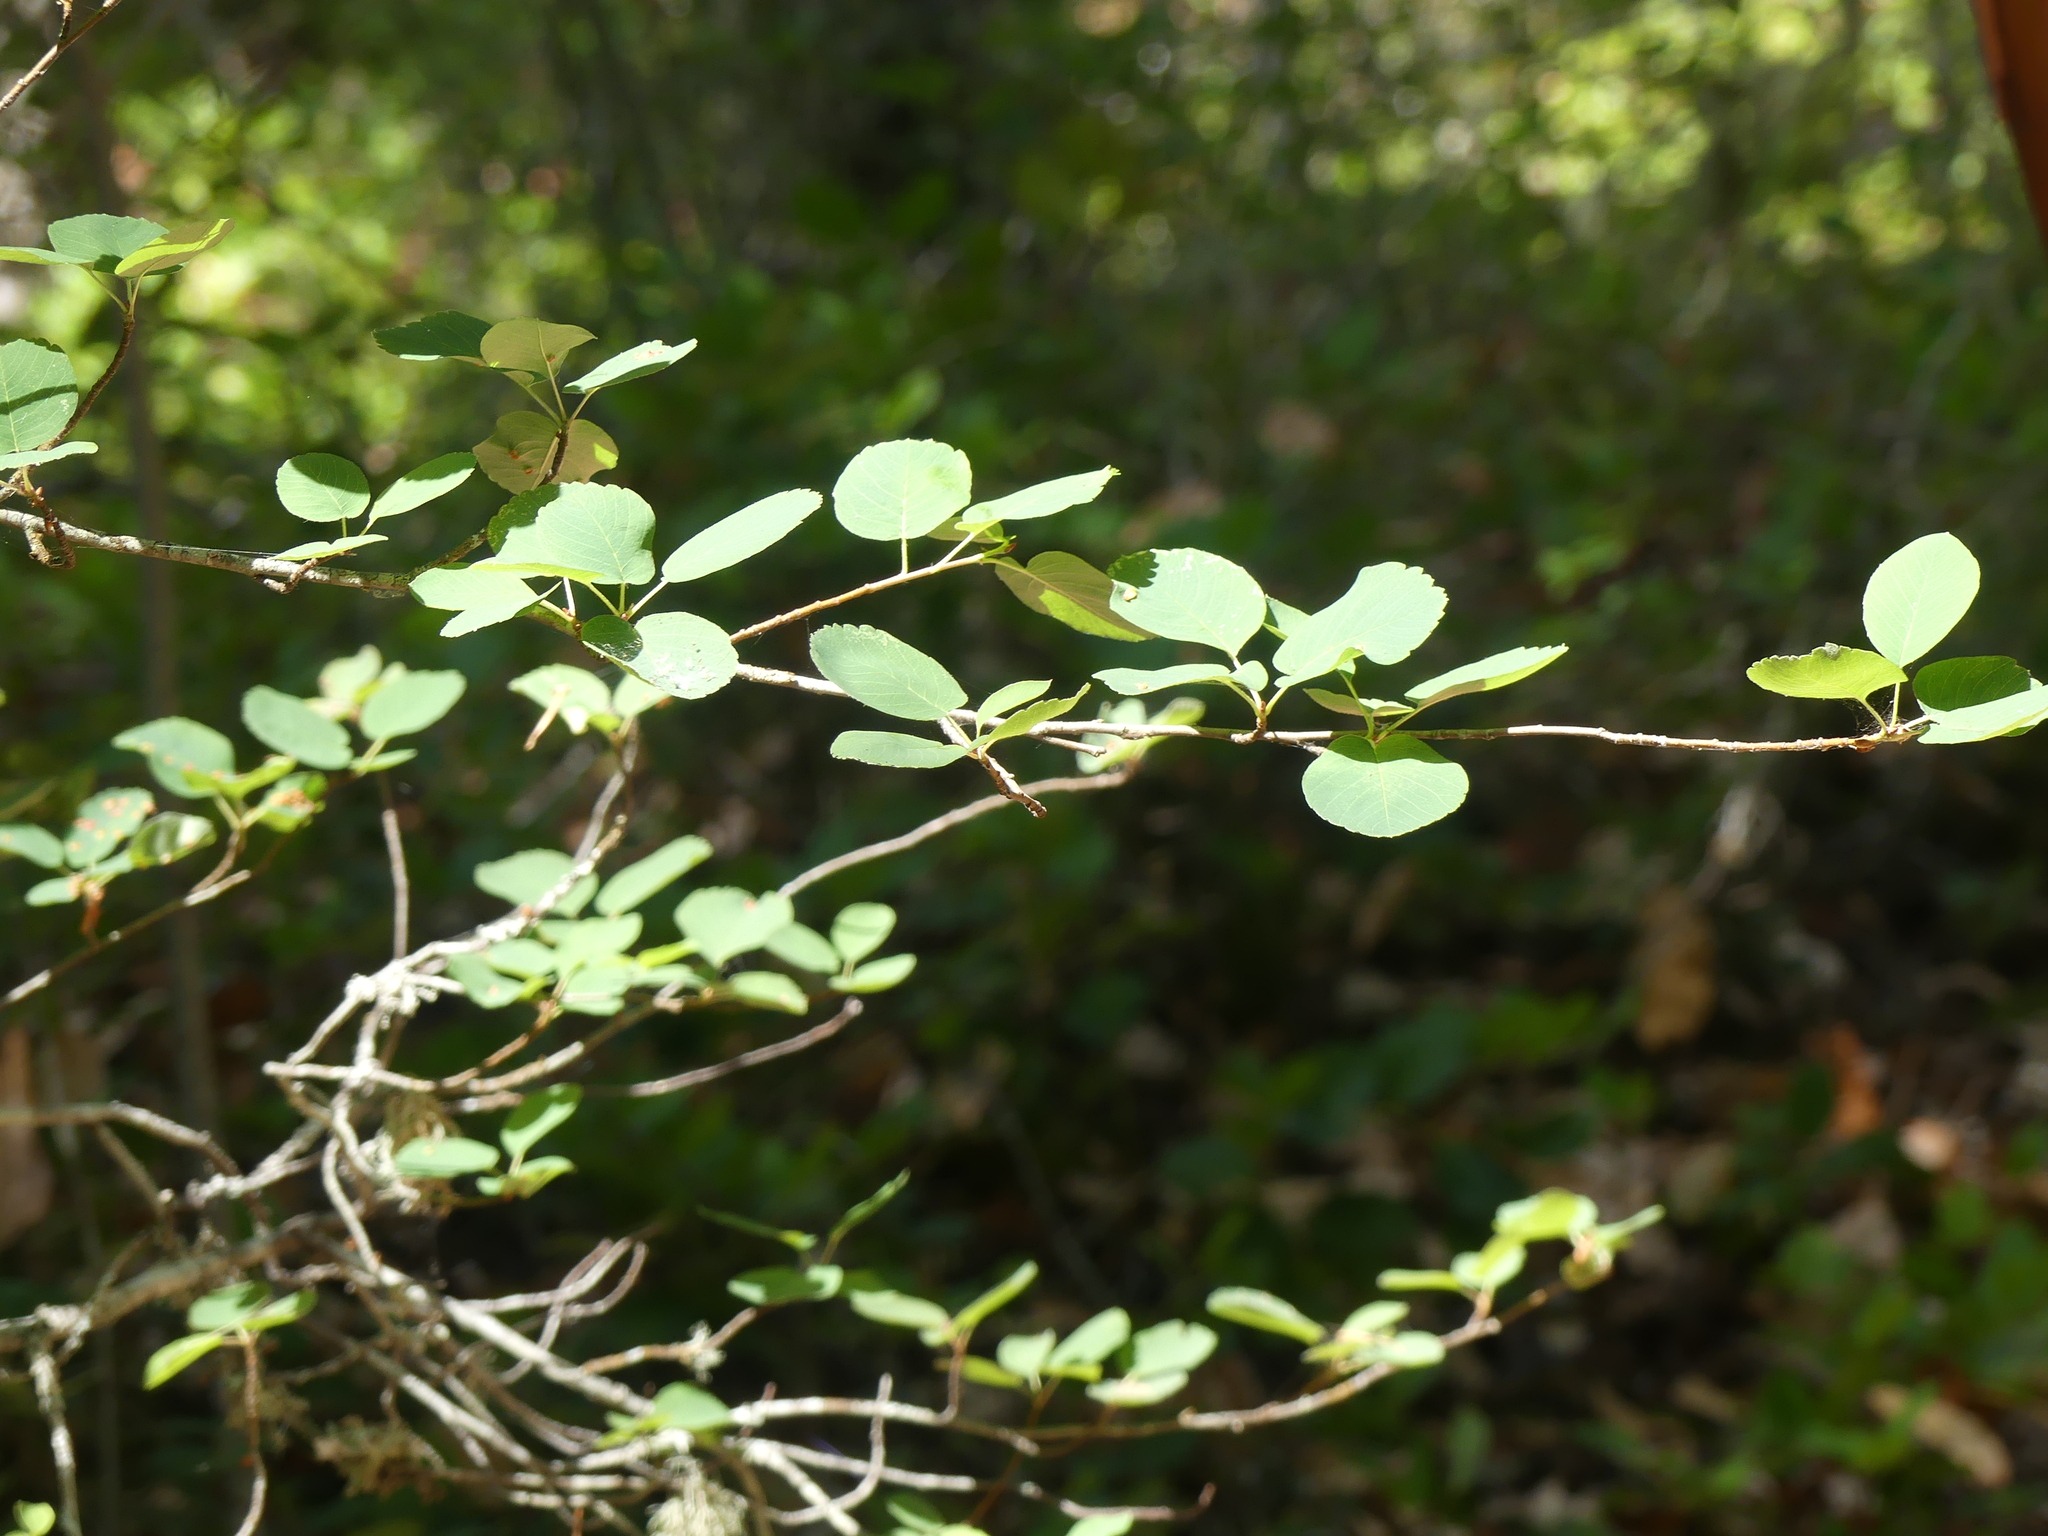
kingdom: Plantae
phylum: Tracheophyta
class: Magnoliopsida
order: Rosales
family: Rosaceae
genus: Amelanchier
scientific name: Amelanchier alnifolia
